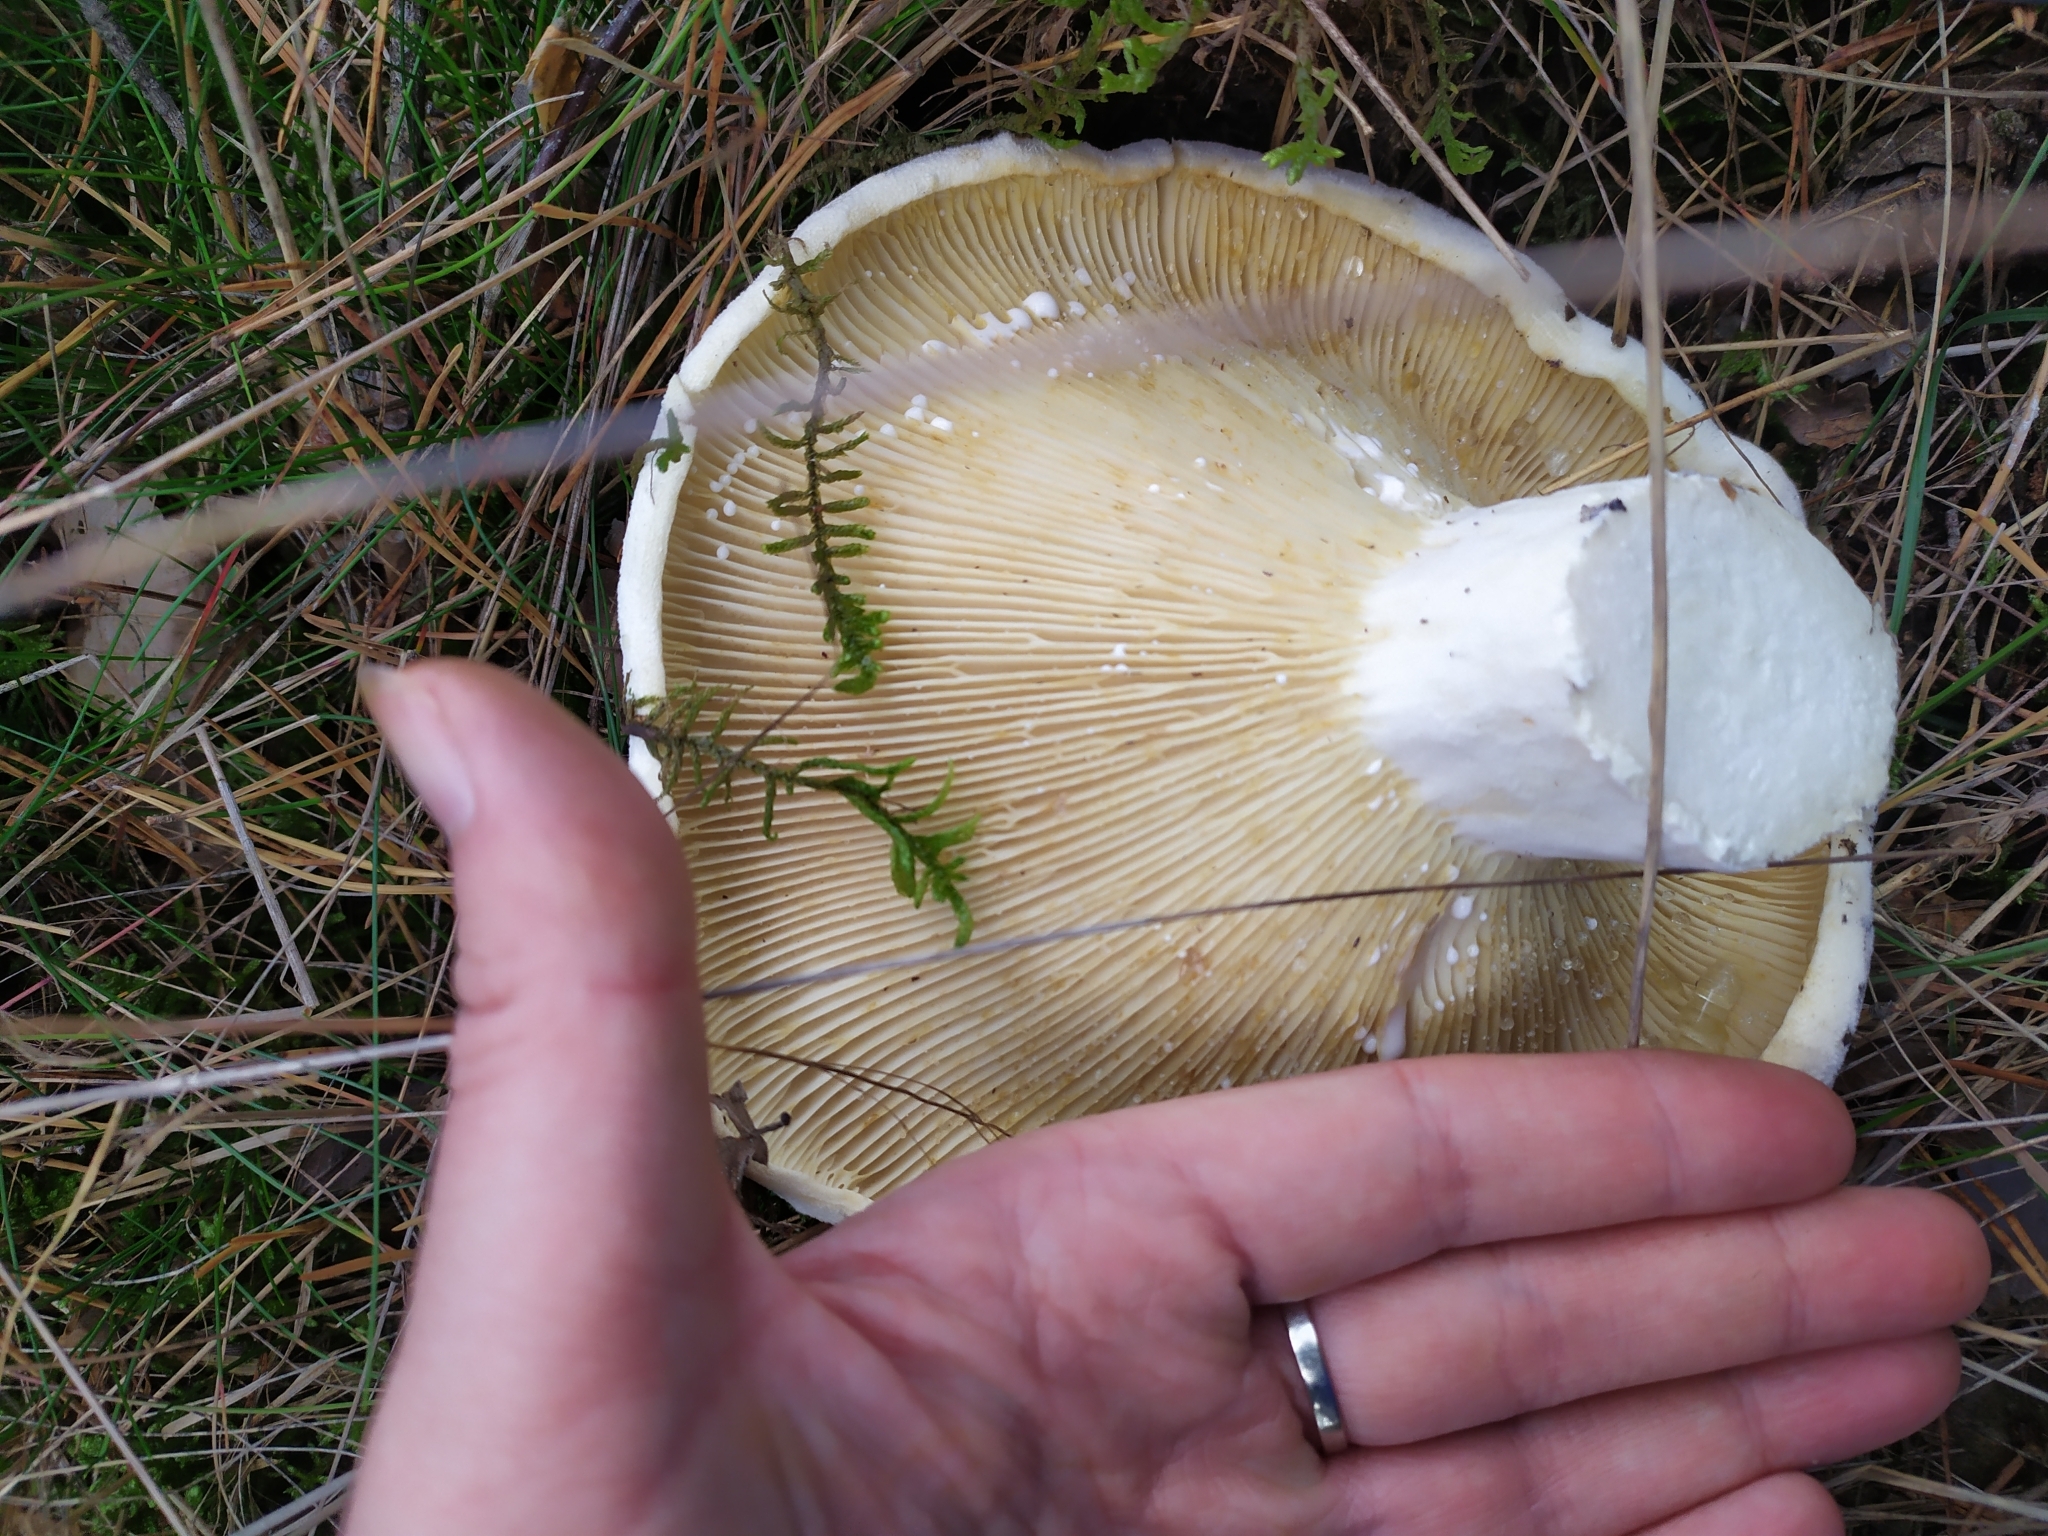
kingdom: Fungi
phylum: Basidiomycota
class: Agaricomycetes
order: Russulales
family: Russulaceae
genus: Lactifluus
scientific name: Lactifluus vellereus
